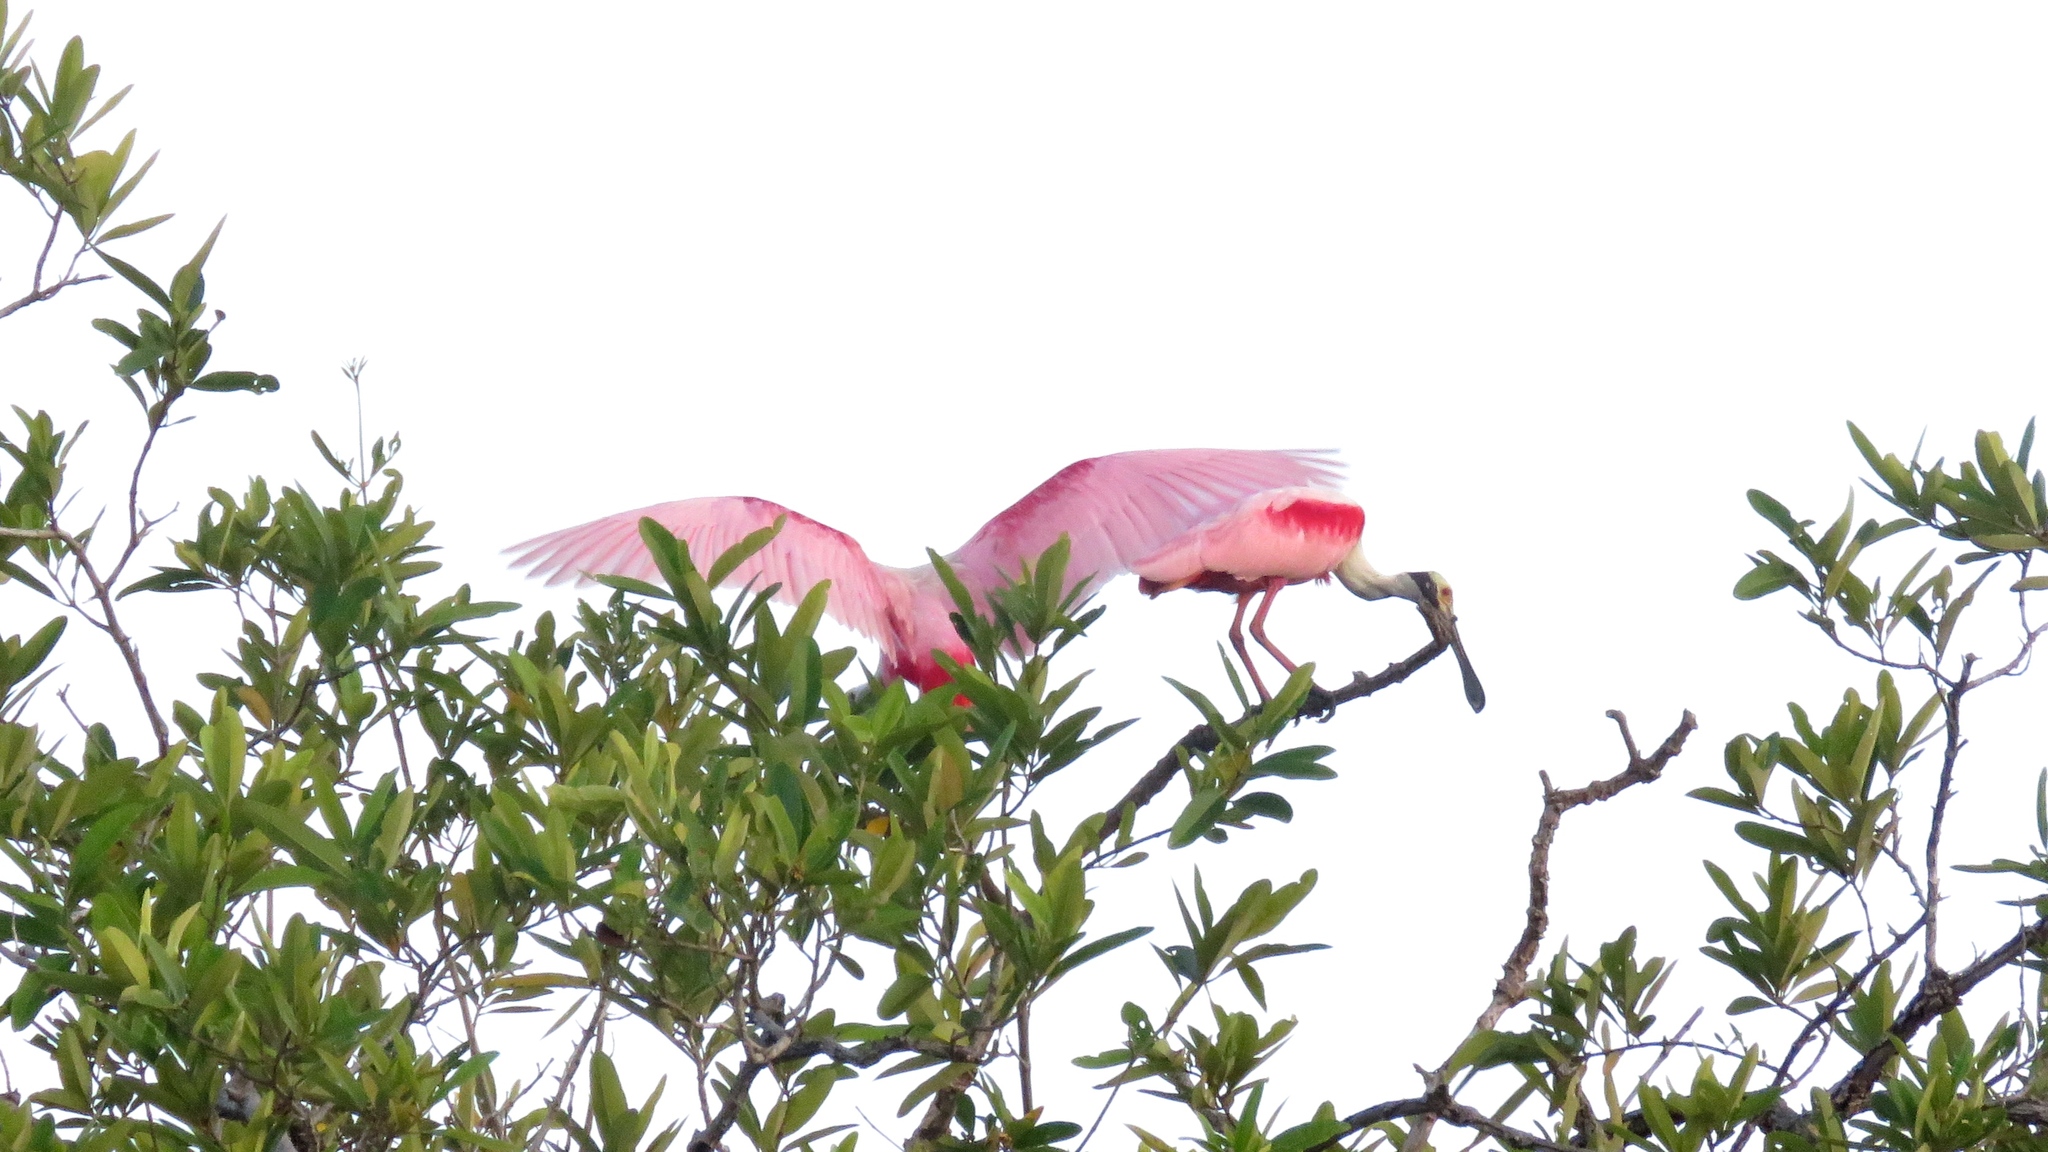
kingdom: Animalia
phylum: Chordata
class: Aves
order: Pelecaniformes
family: Threskiornithidae
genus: Platalea
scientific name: Platalea ajaja
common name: Roseate spoonbill
